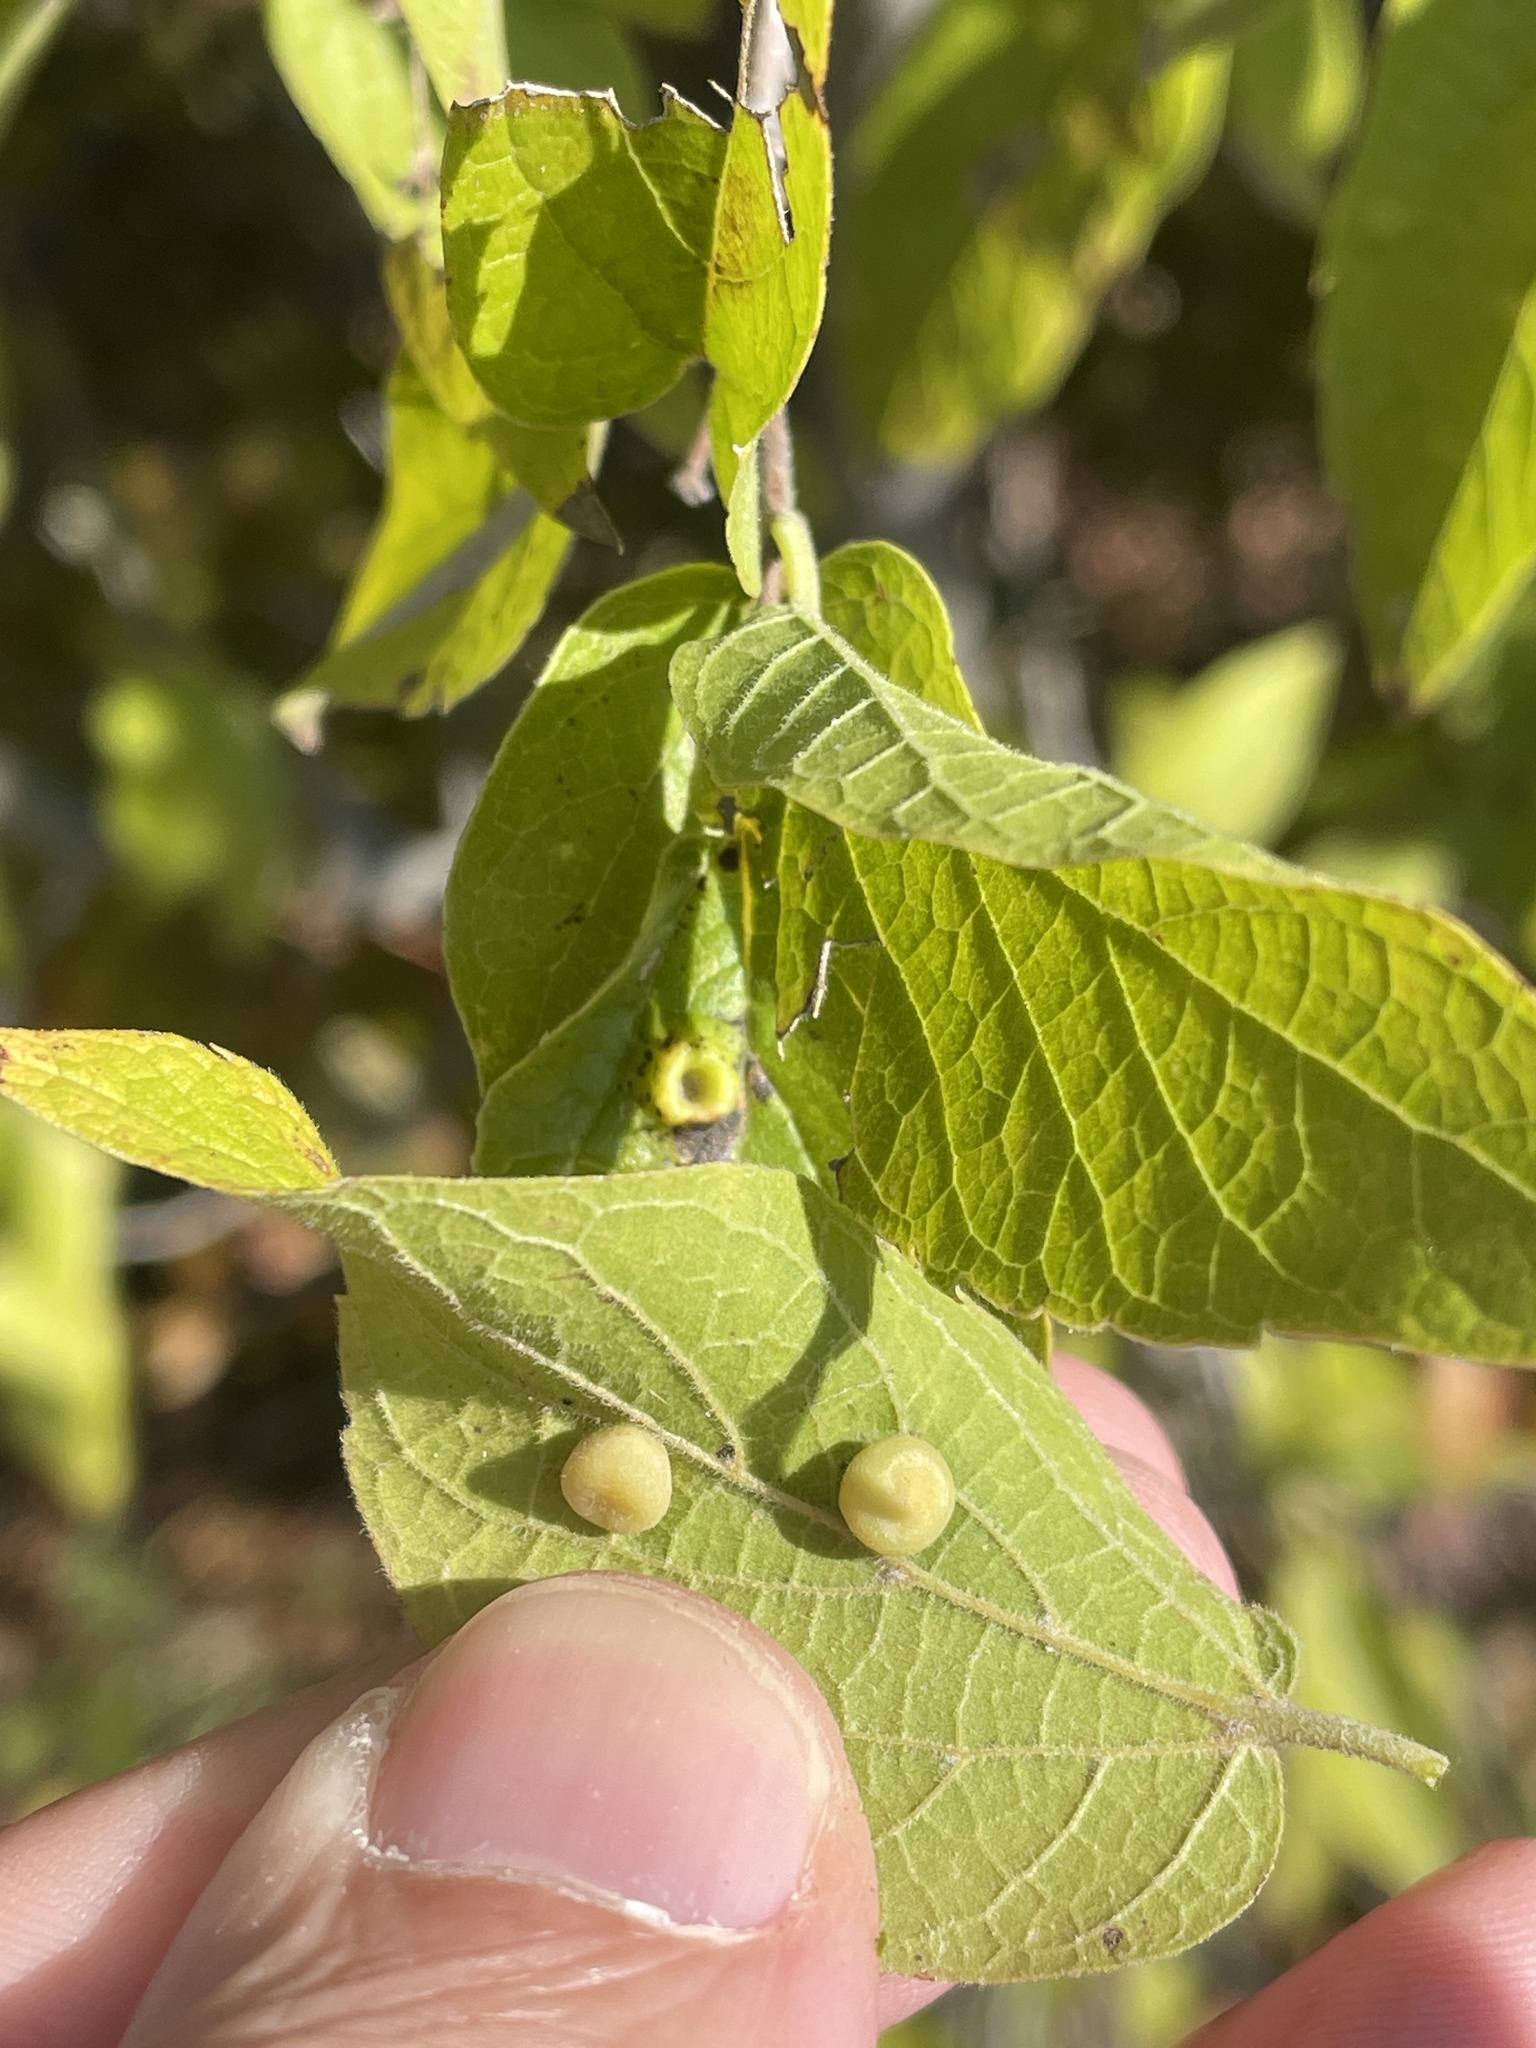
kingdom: Animalia
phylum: Arthropoda
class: Insecta
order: Hemiptera
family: Aphalaridae
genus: Pachypsylla
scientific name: Pachypsylla celtidismamma
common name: Hackberry nipplegall psyllid
